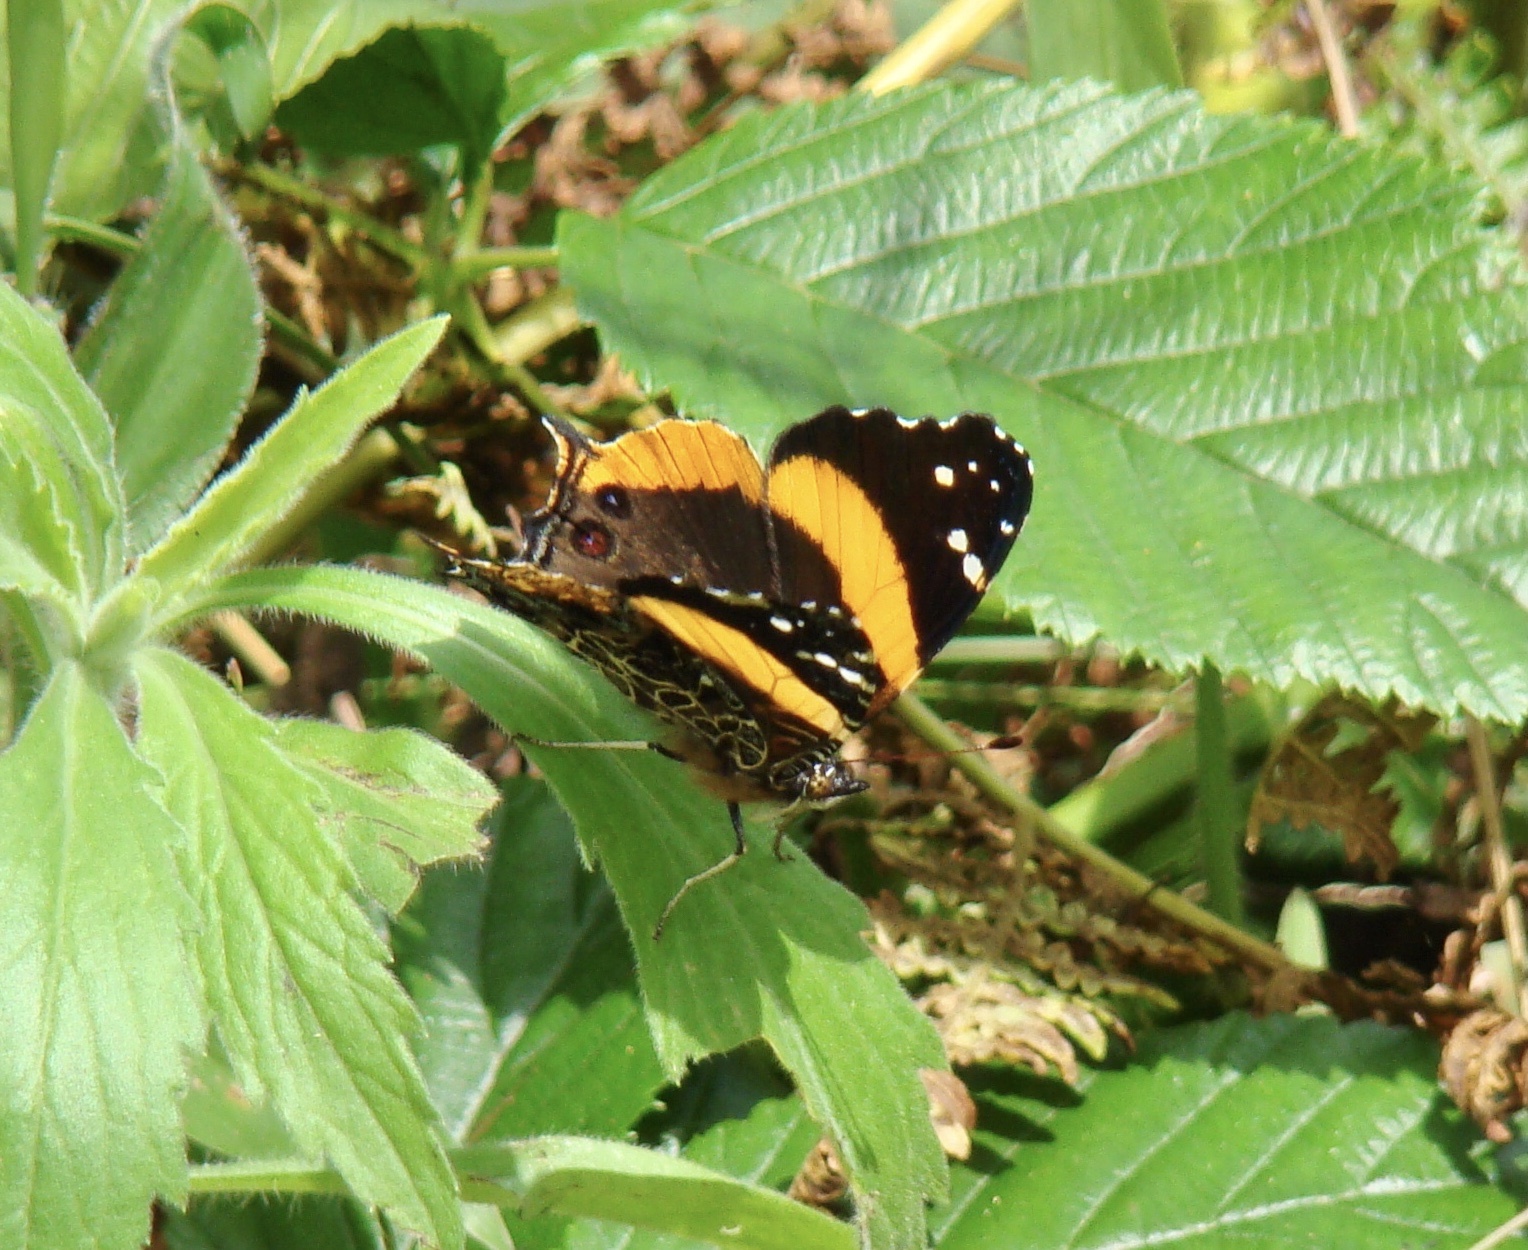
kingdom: Animalia
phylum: Arthropoda
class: Insecta
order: Lepidoptera
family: Nymphalidae
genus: Antanartia
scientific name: Antanartia dimorphica
